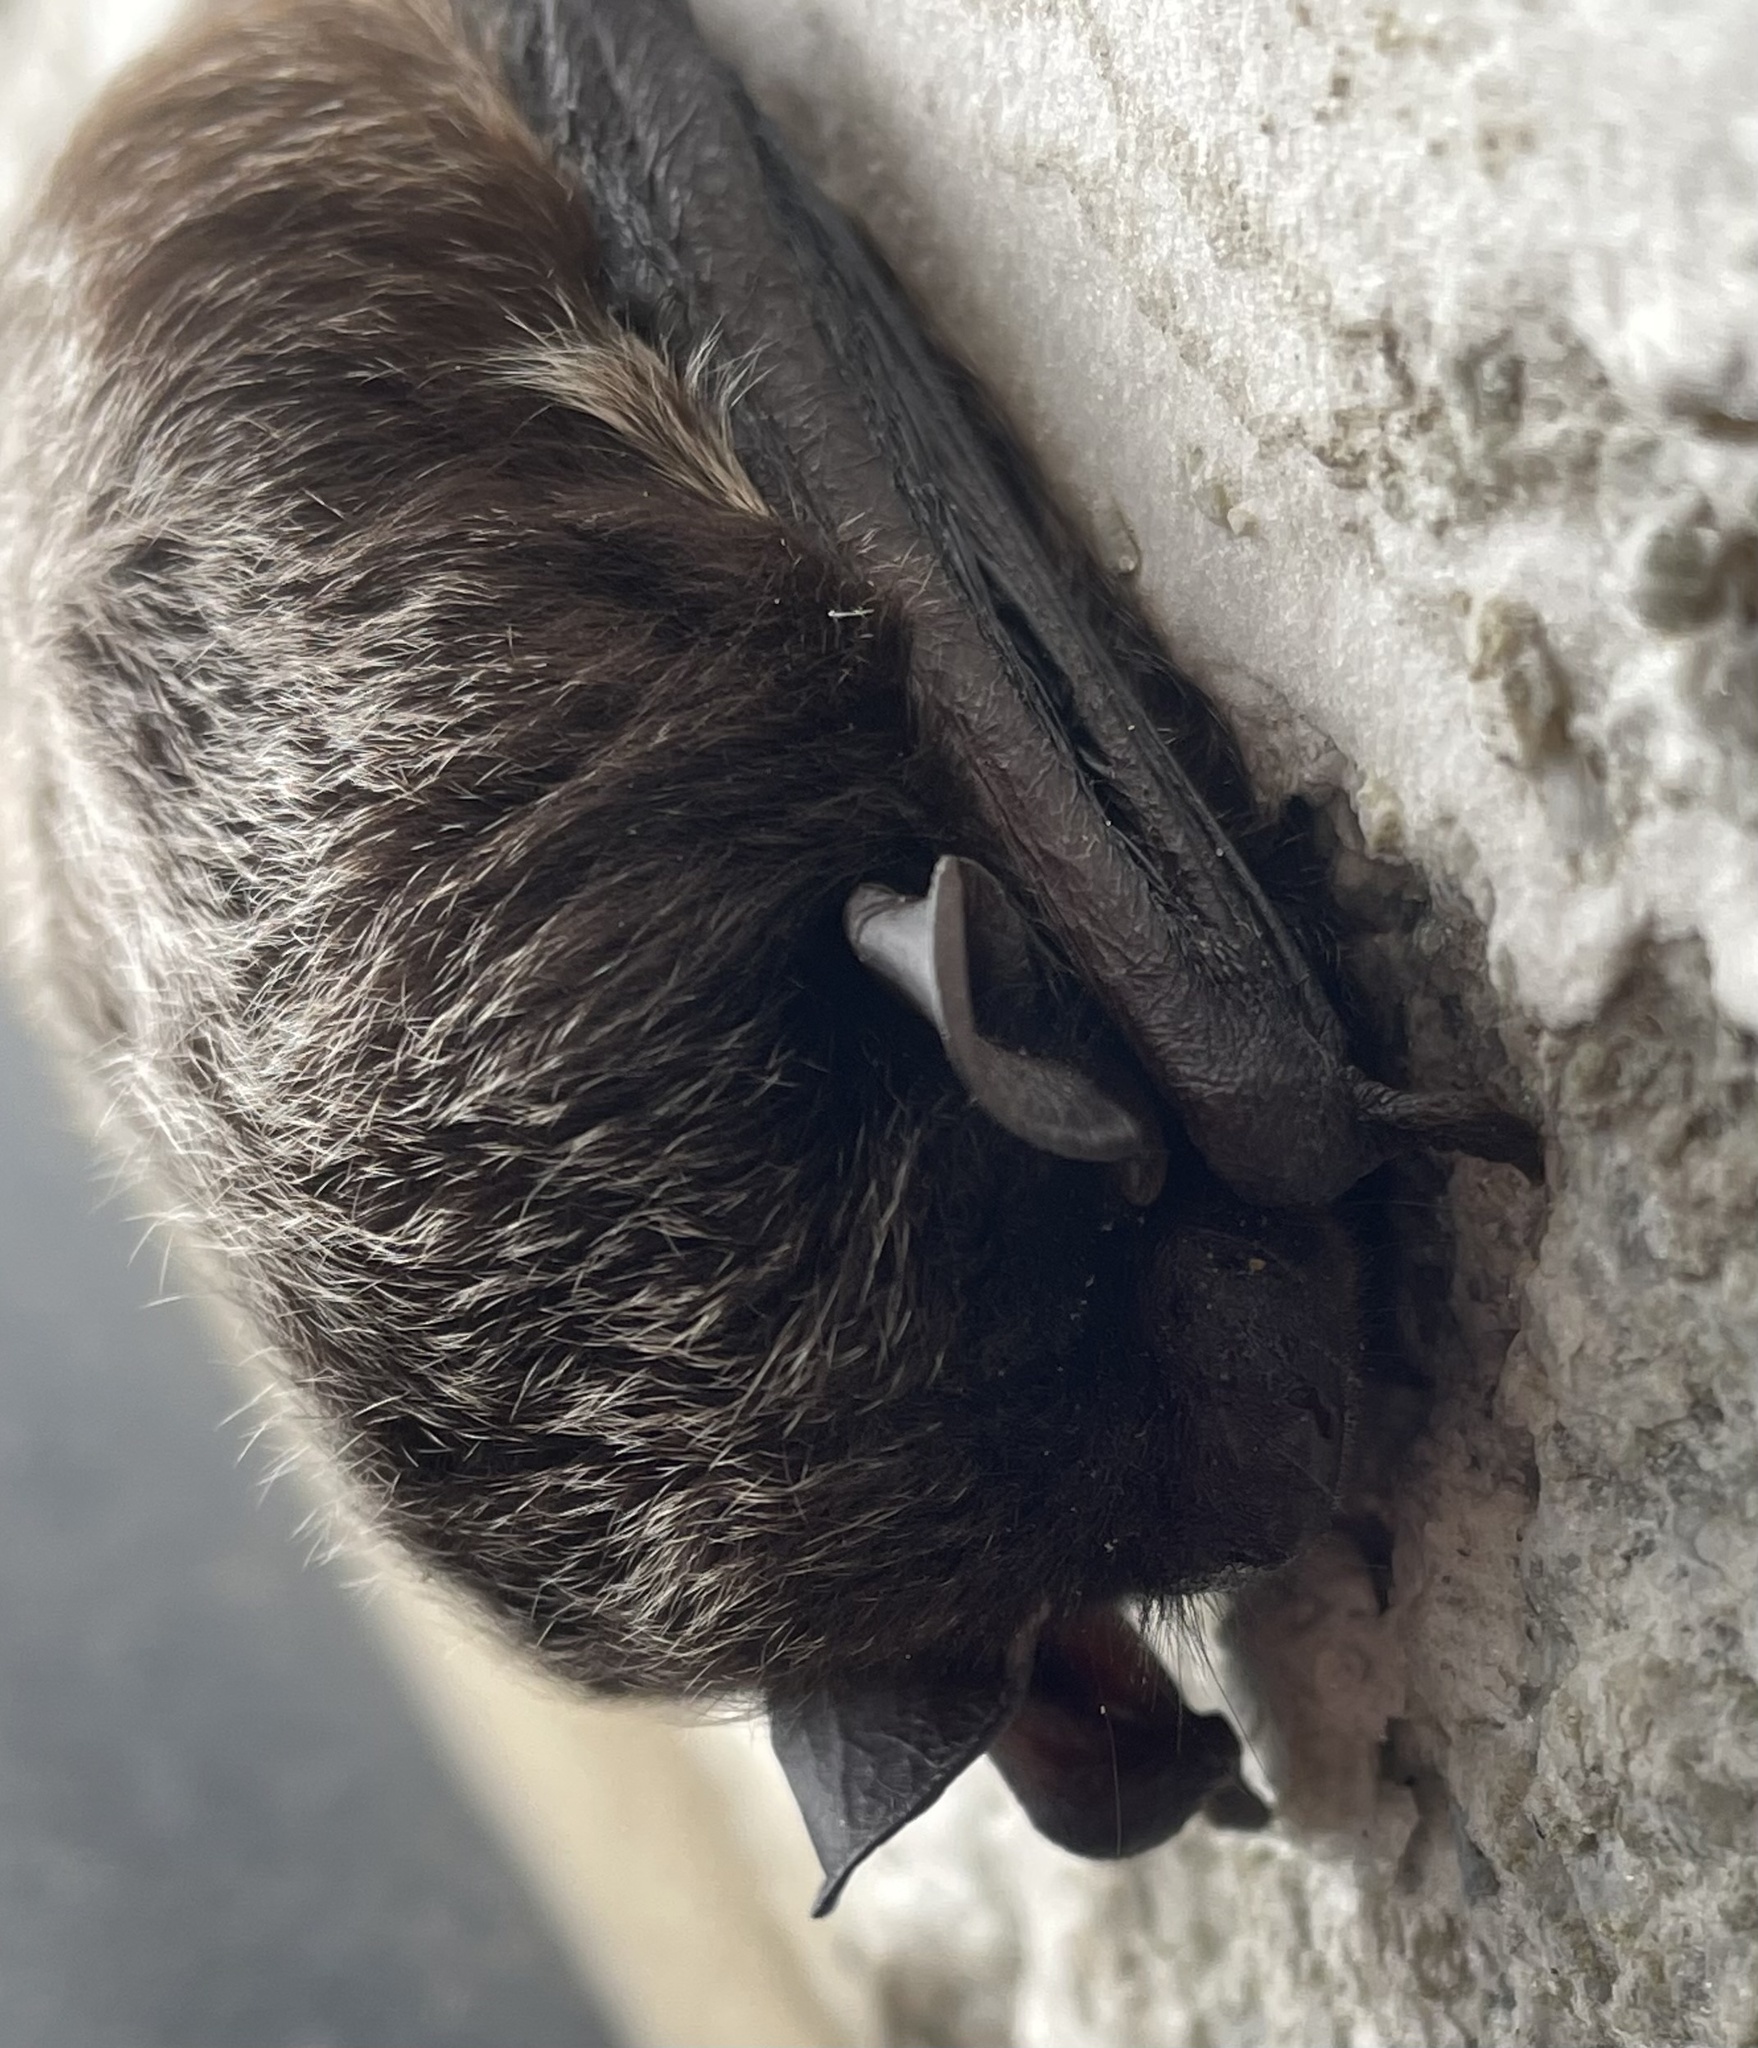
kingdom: Animalia
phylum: Chordata
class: Mammalia
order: Chiroptera
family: Vespertilionidae
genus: Lasionycteris
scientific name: Lasionycteris noctivagans
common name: Silver-haired bat
